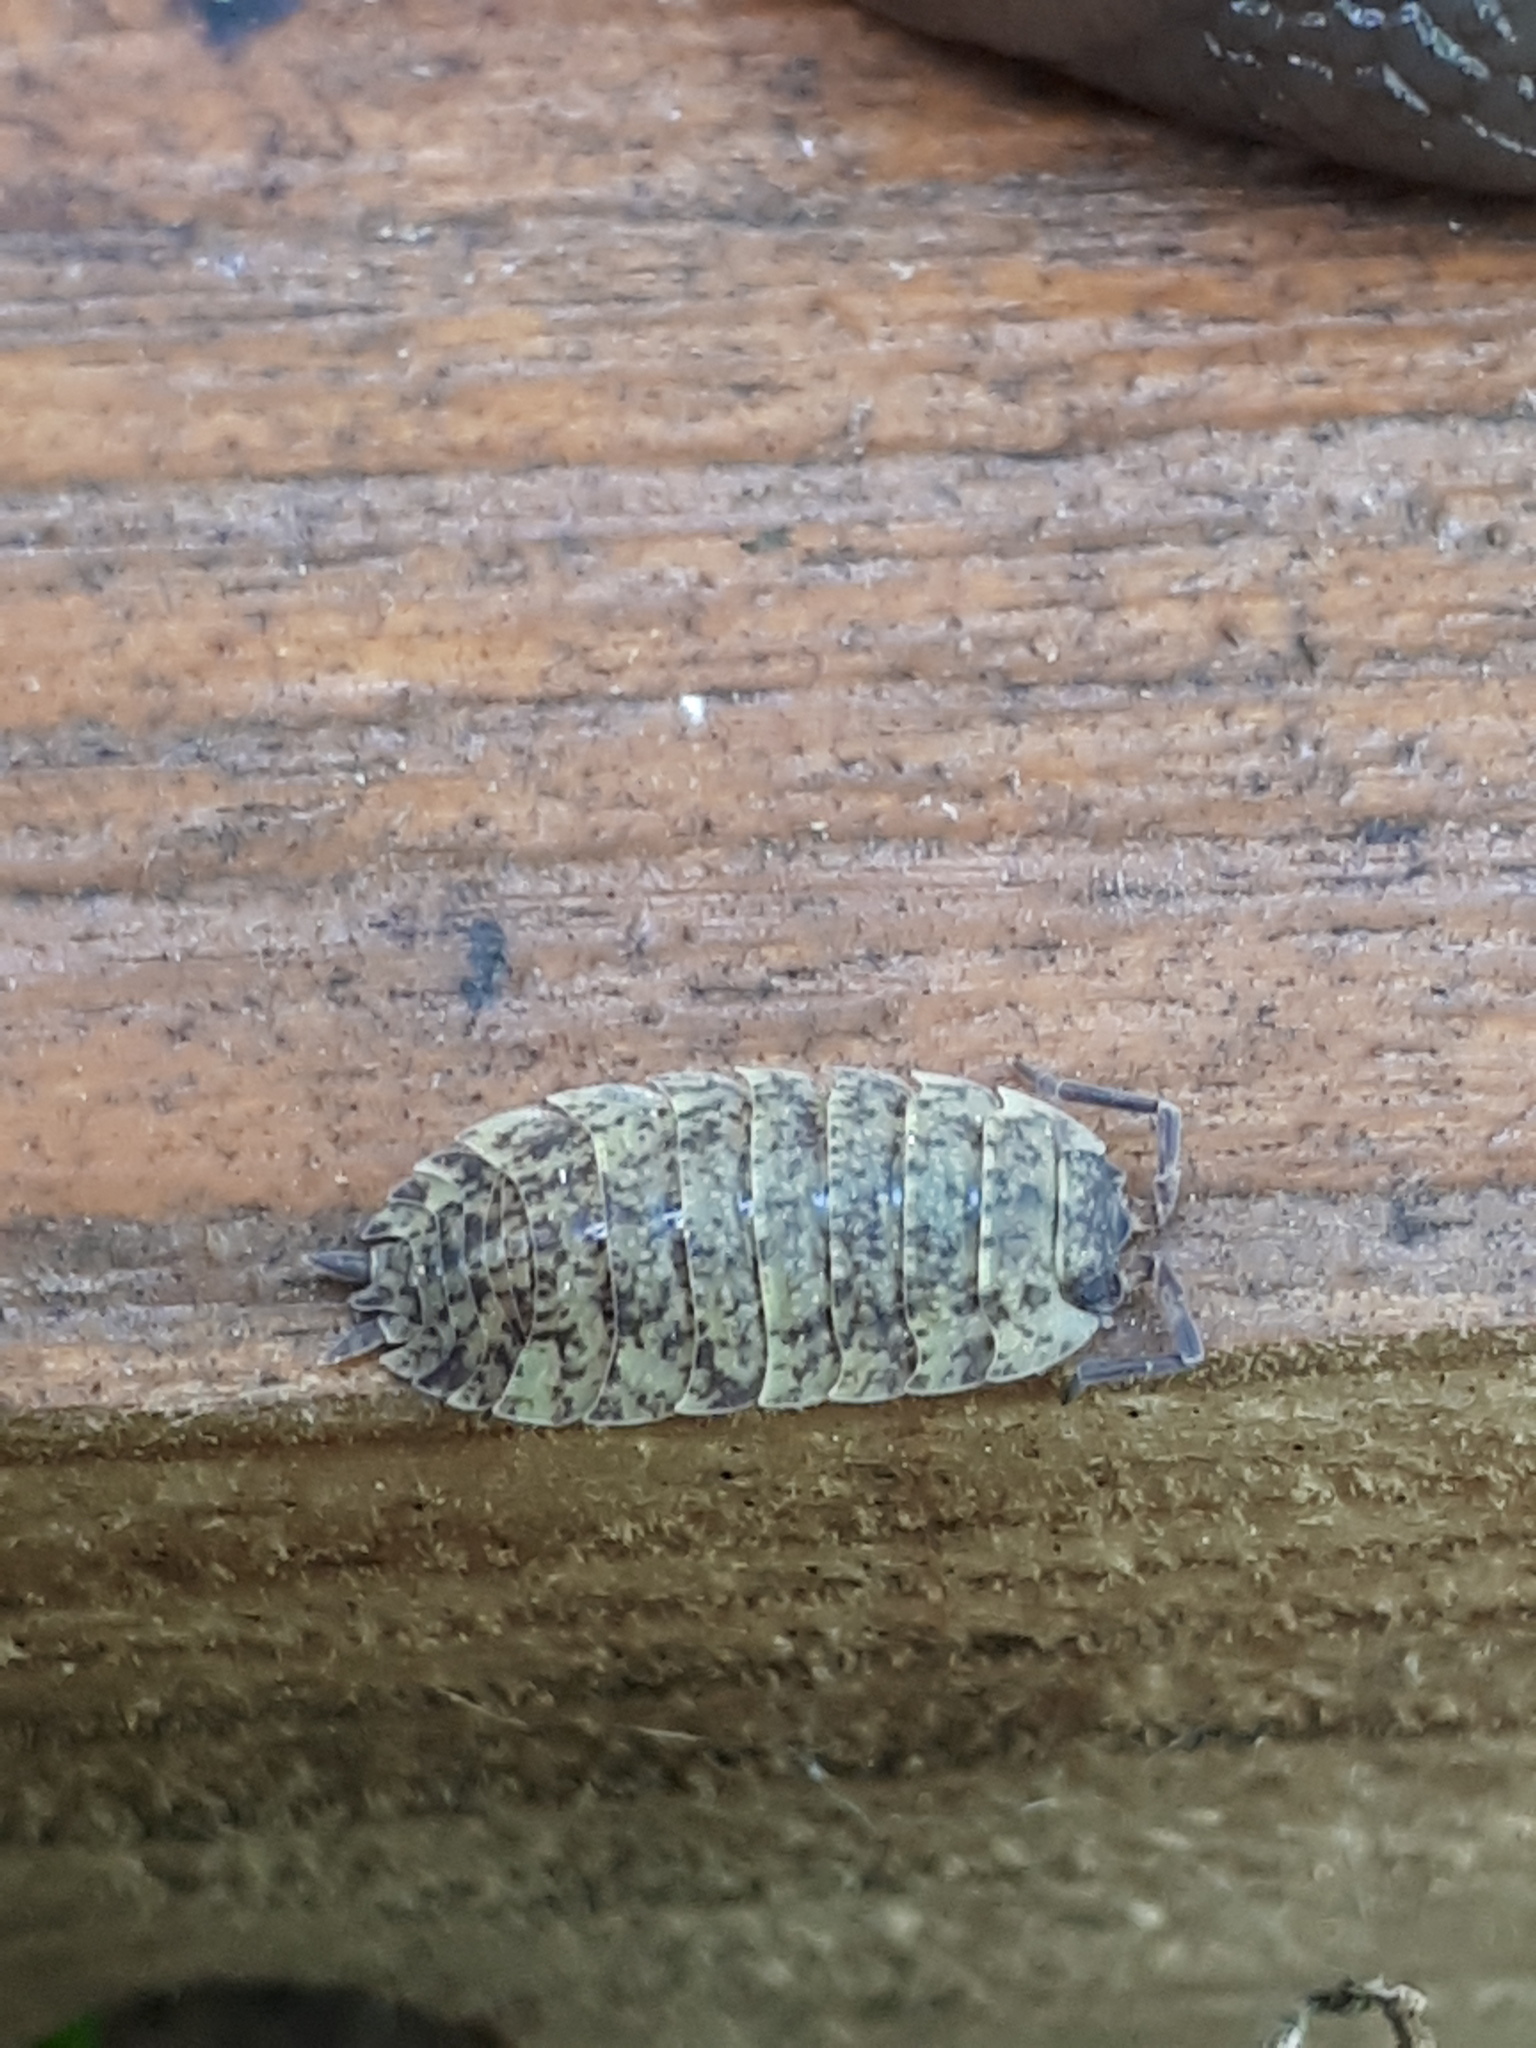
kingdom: Animalia
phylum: Arthropoda
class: Malacostraca
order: Isopoda
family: Porcellionidae
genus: Porcellio
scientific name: Porcellio scaber
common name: Common rough woodlouse
